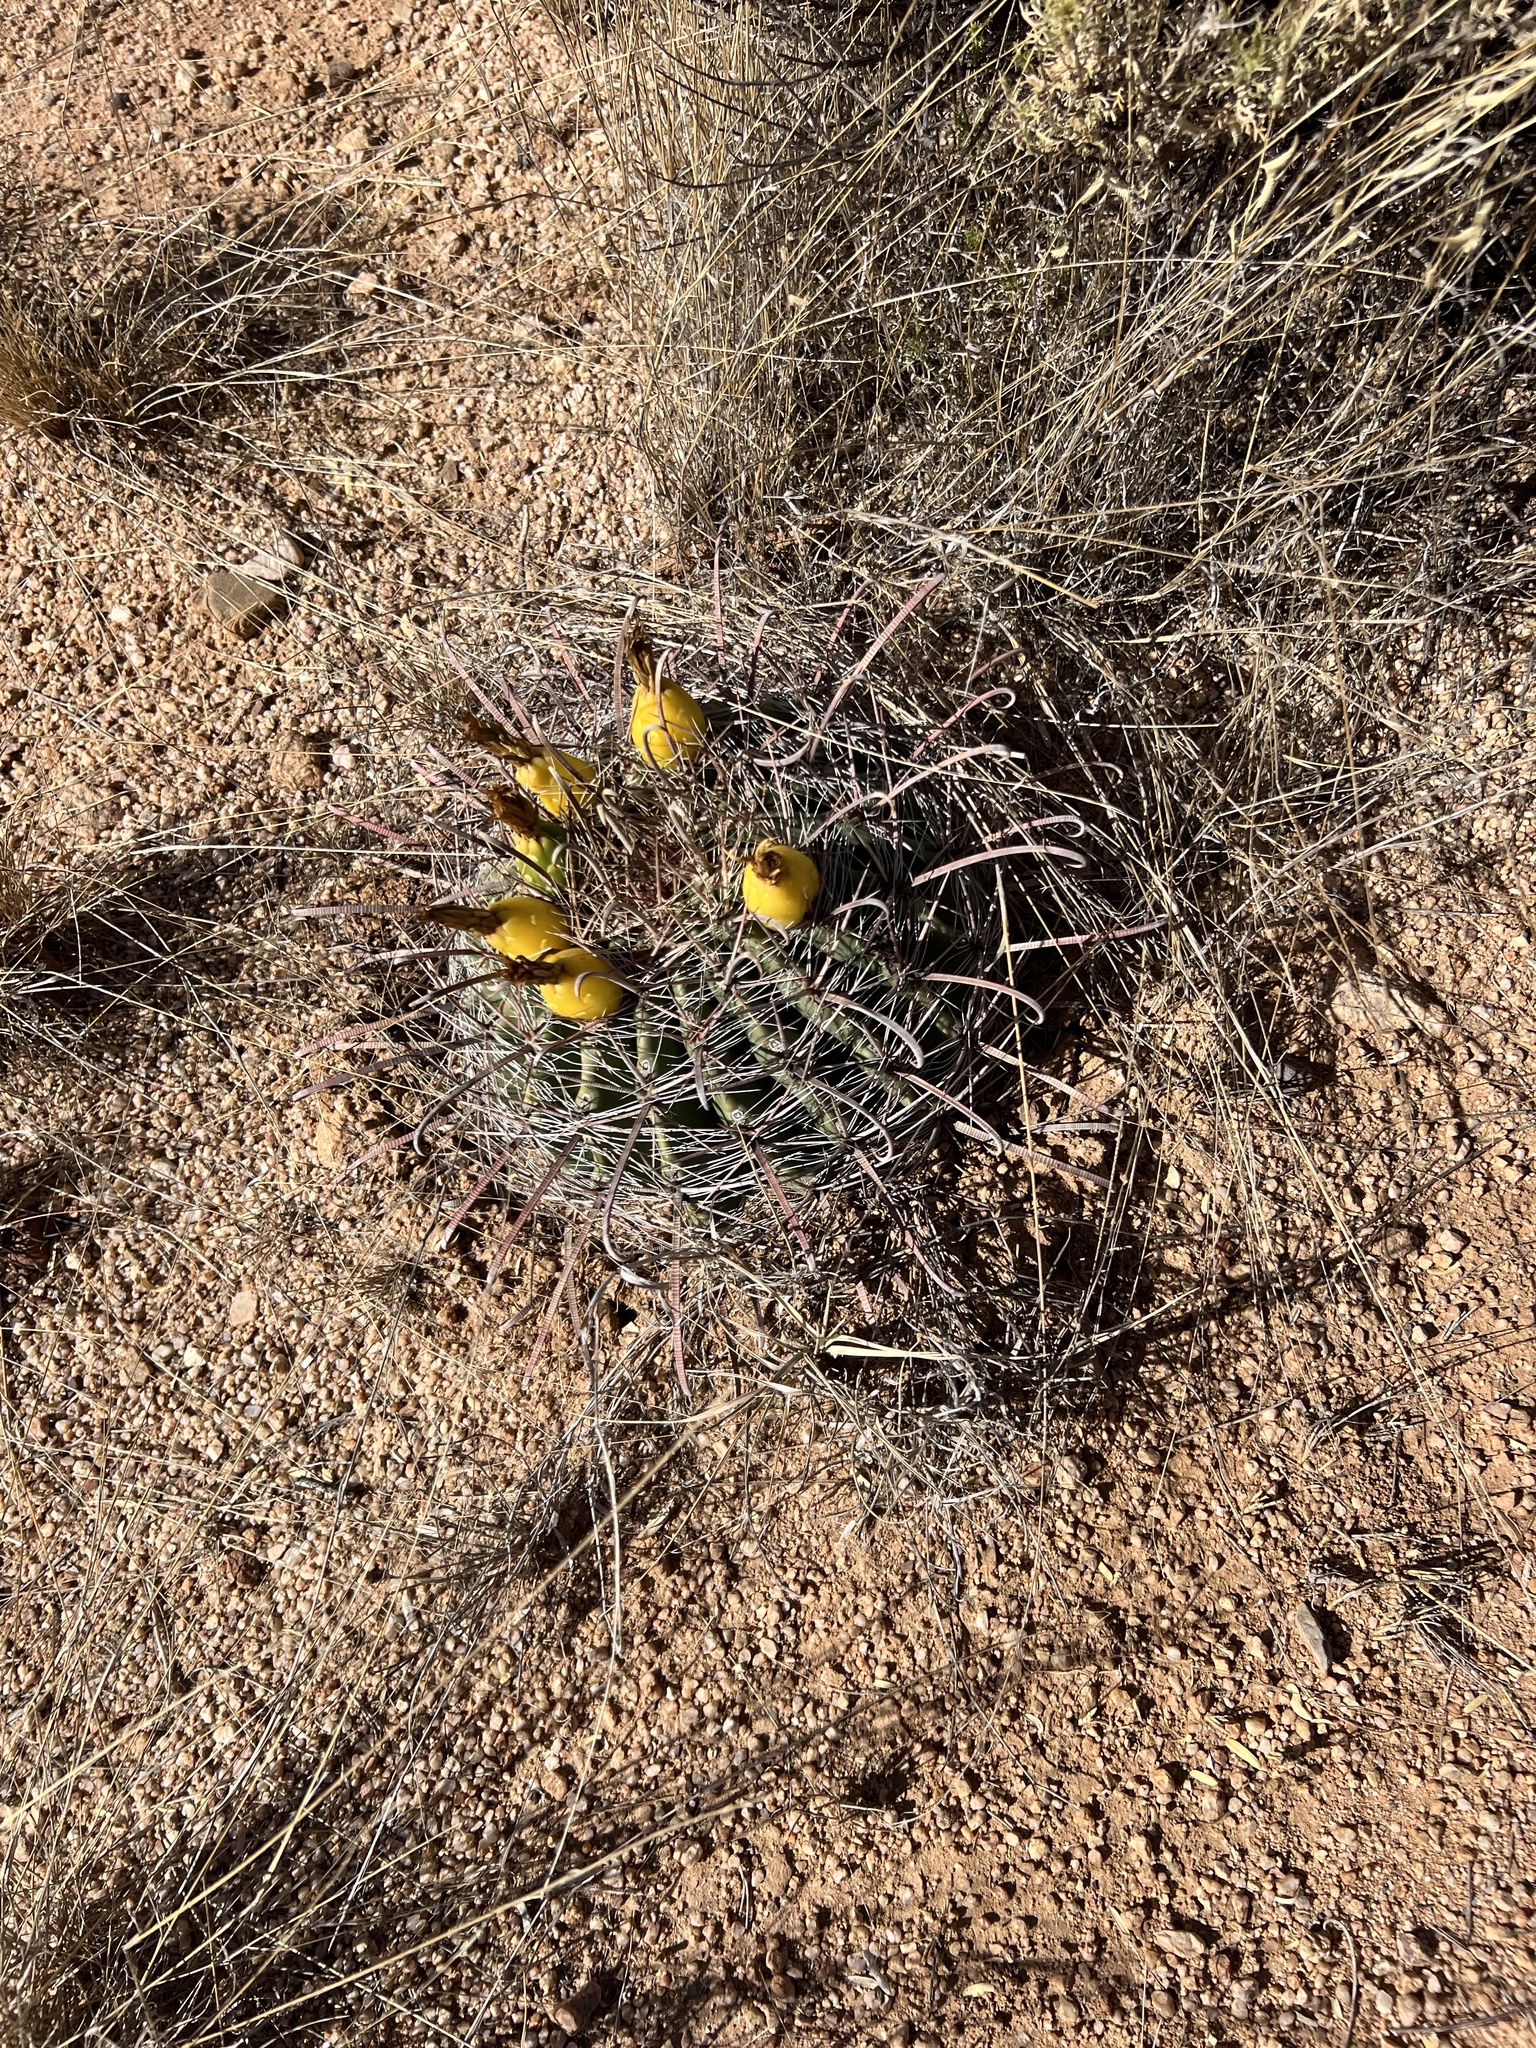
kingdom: Plantae
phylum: Tracheophyta
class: Magnoliopsida
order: Caryophyllales
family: Cactaceae
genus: Ferocactus
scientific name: Ferocactus wislizeni
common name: Candy barrel cactus
